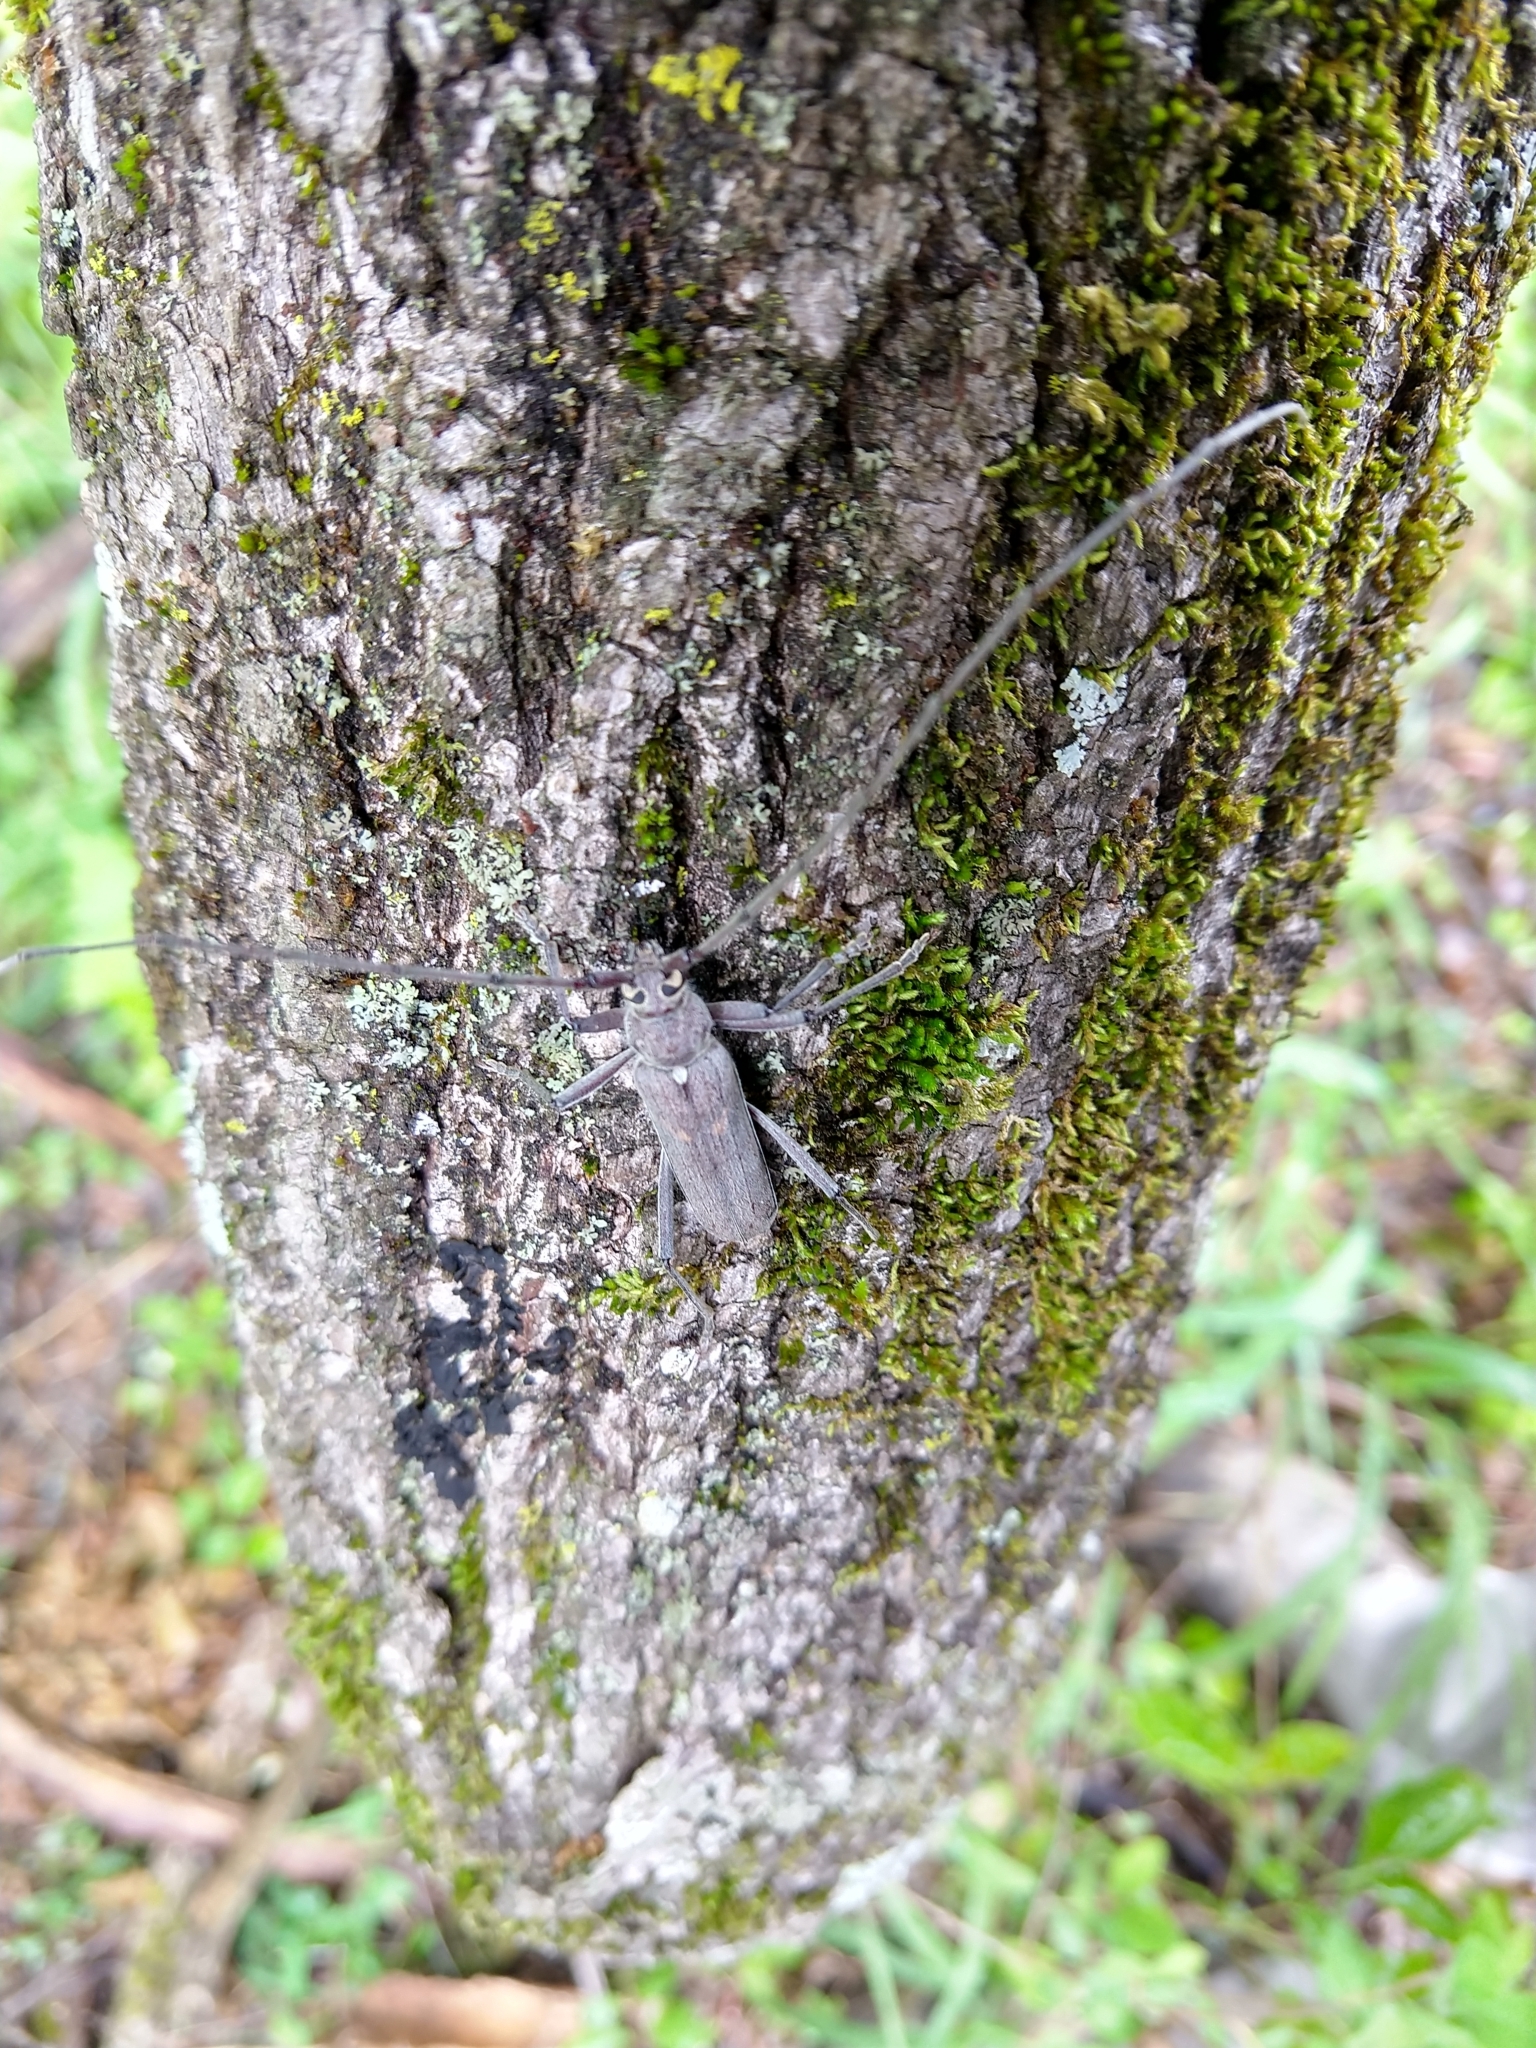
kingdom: Animalia
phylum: Arthropoda
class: Insecta
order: Coleoptera
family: Cerambycidae
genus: Knulliana
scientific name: Knulliana cincta
